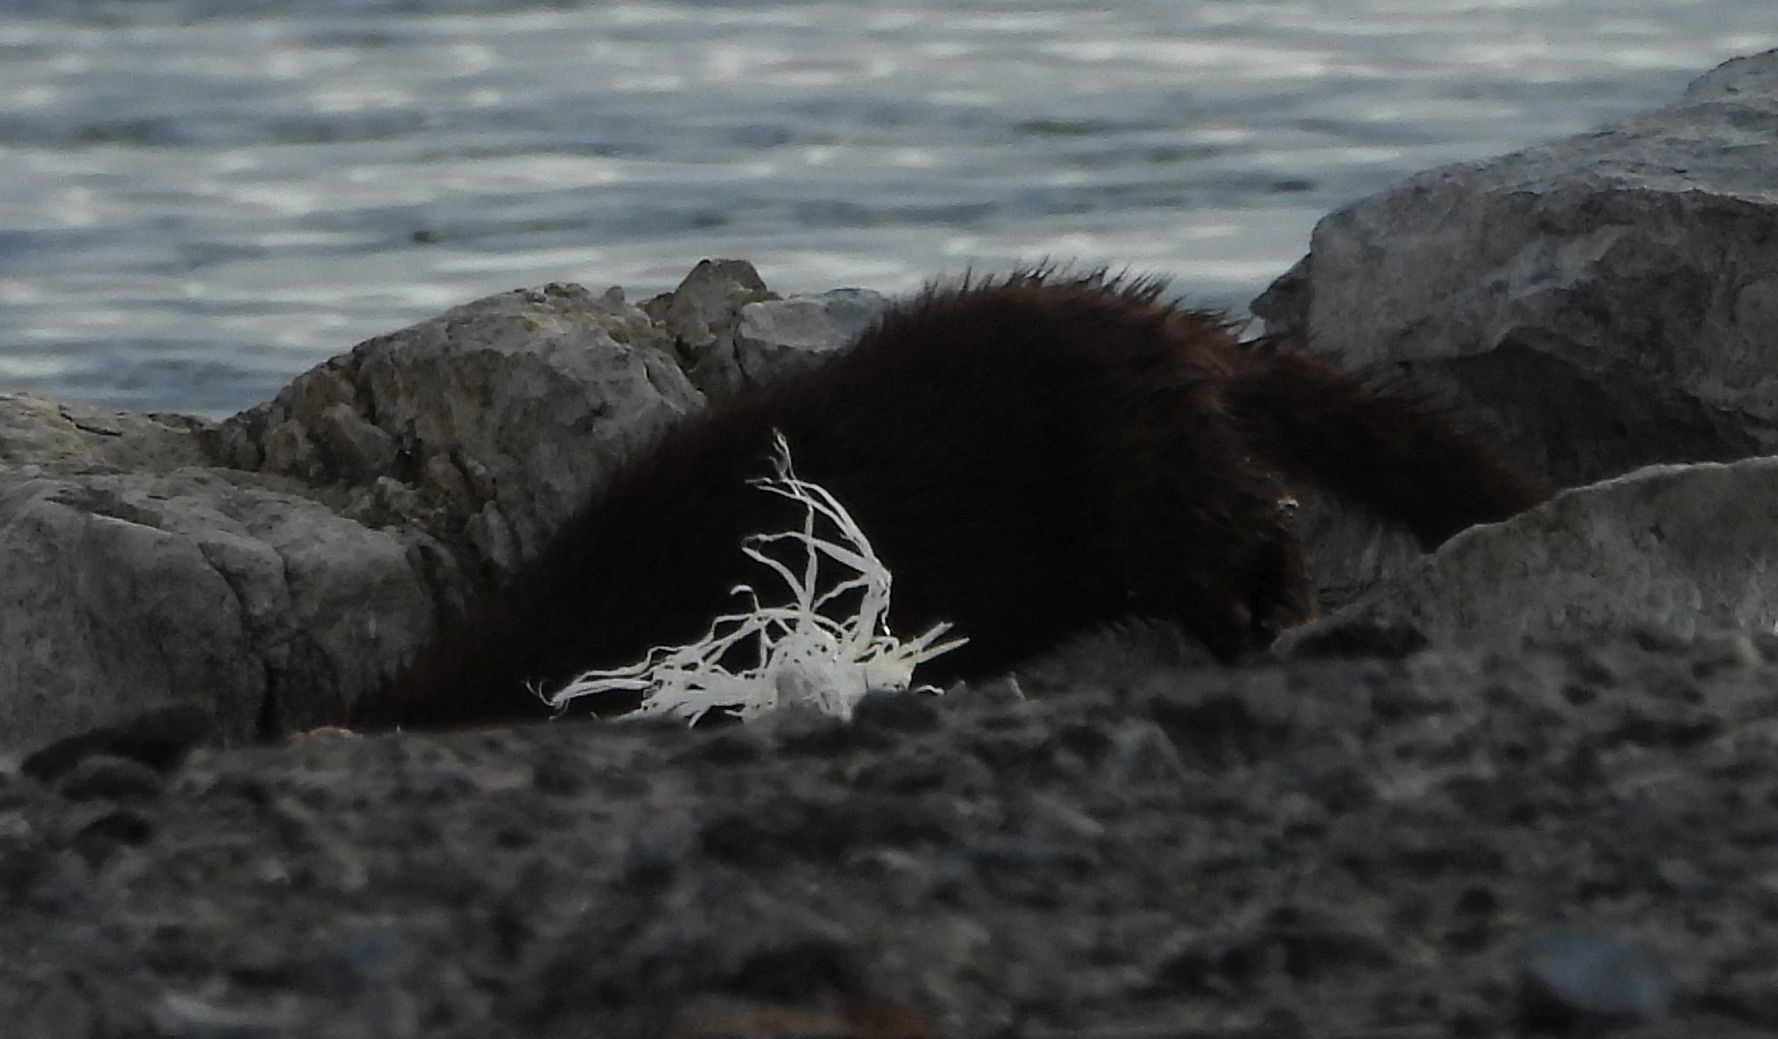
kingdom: Animalia
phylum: Chordata
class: Mammalia
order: Carnivora
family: Mustelidae
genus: Mustela
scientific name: Mustela
